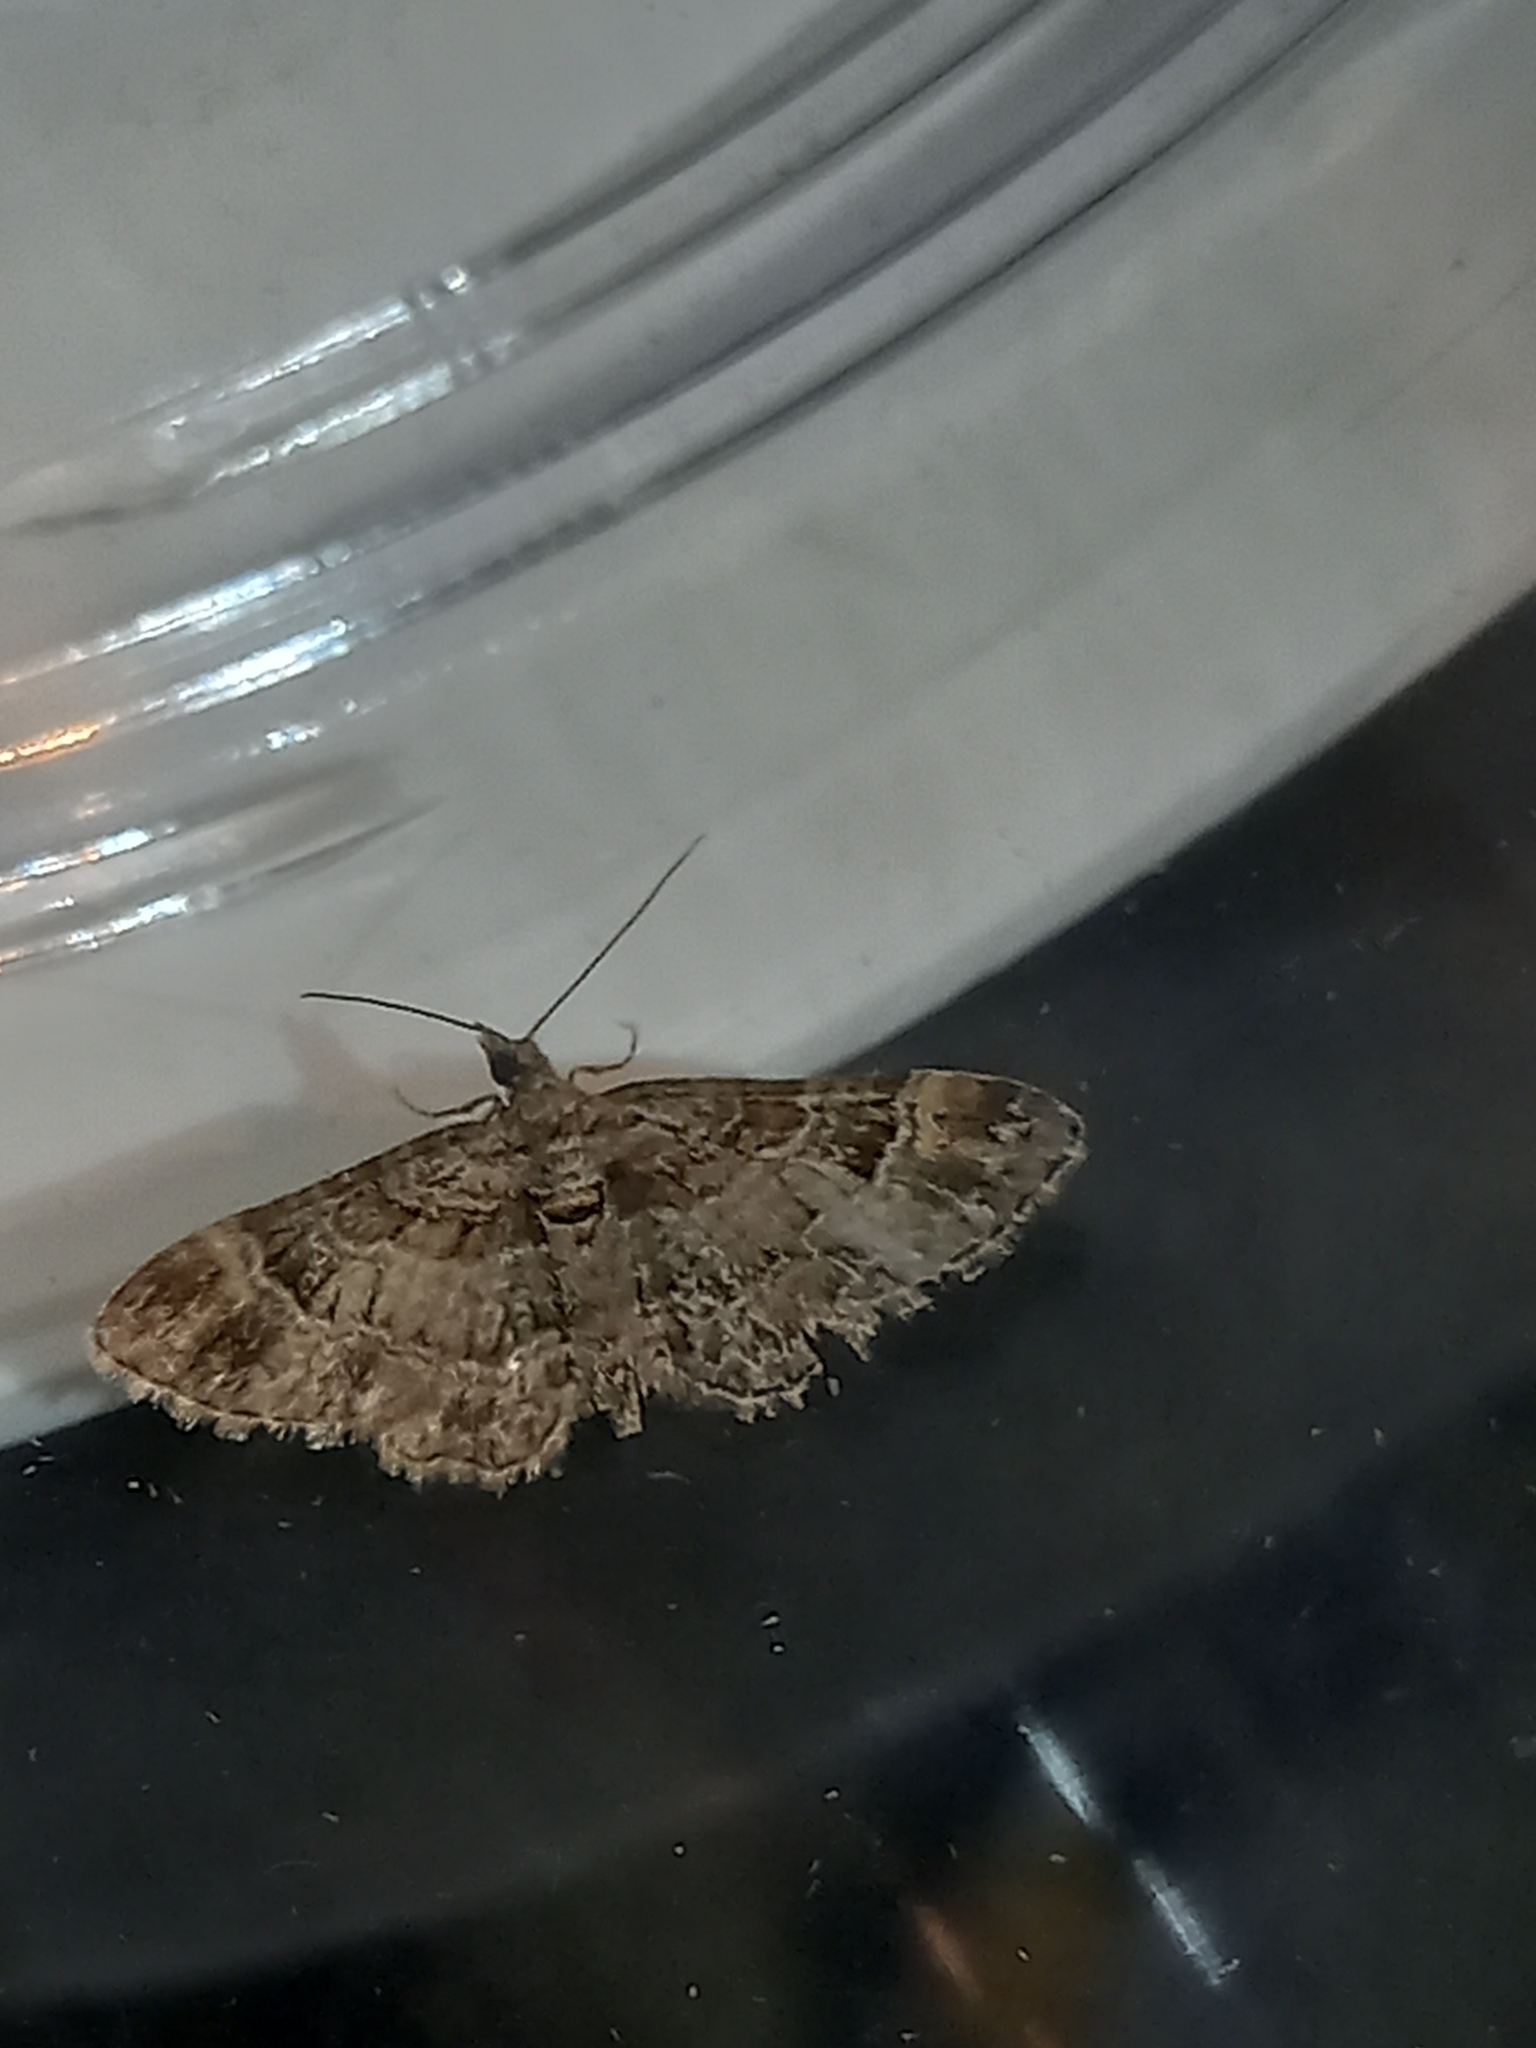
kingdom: Animalia
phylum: Arthropoda
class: Insecta
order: Lepidoptera
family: Geometridae
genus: Gymnoscelis
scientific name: Gymnoscelis rufifasciata
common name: Double-striped pug
